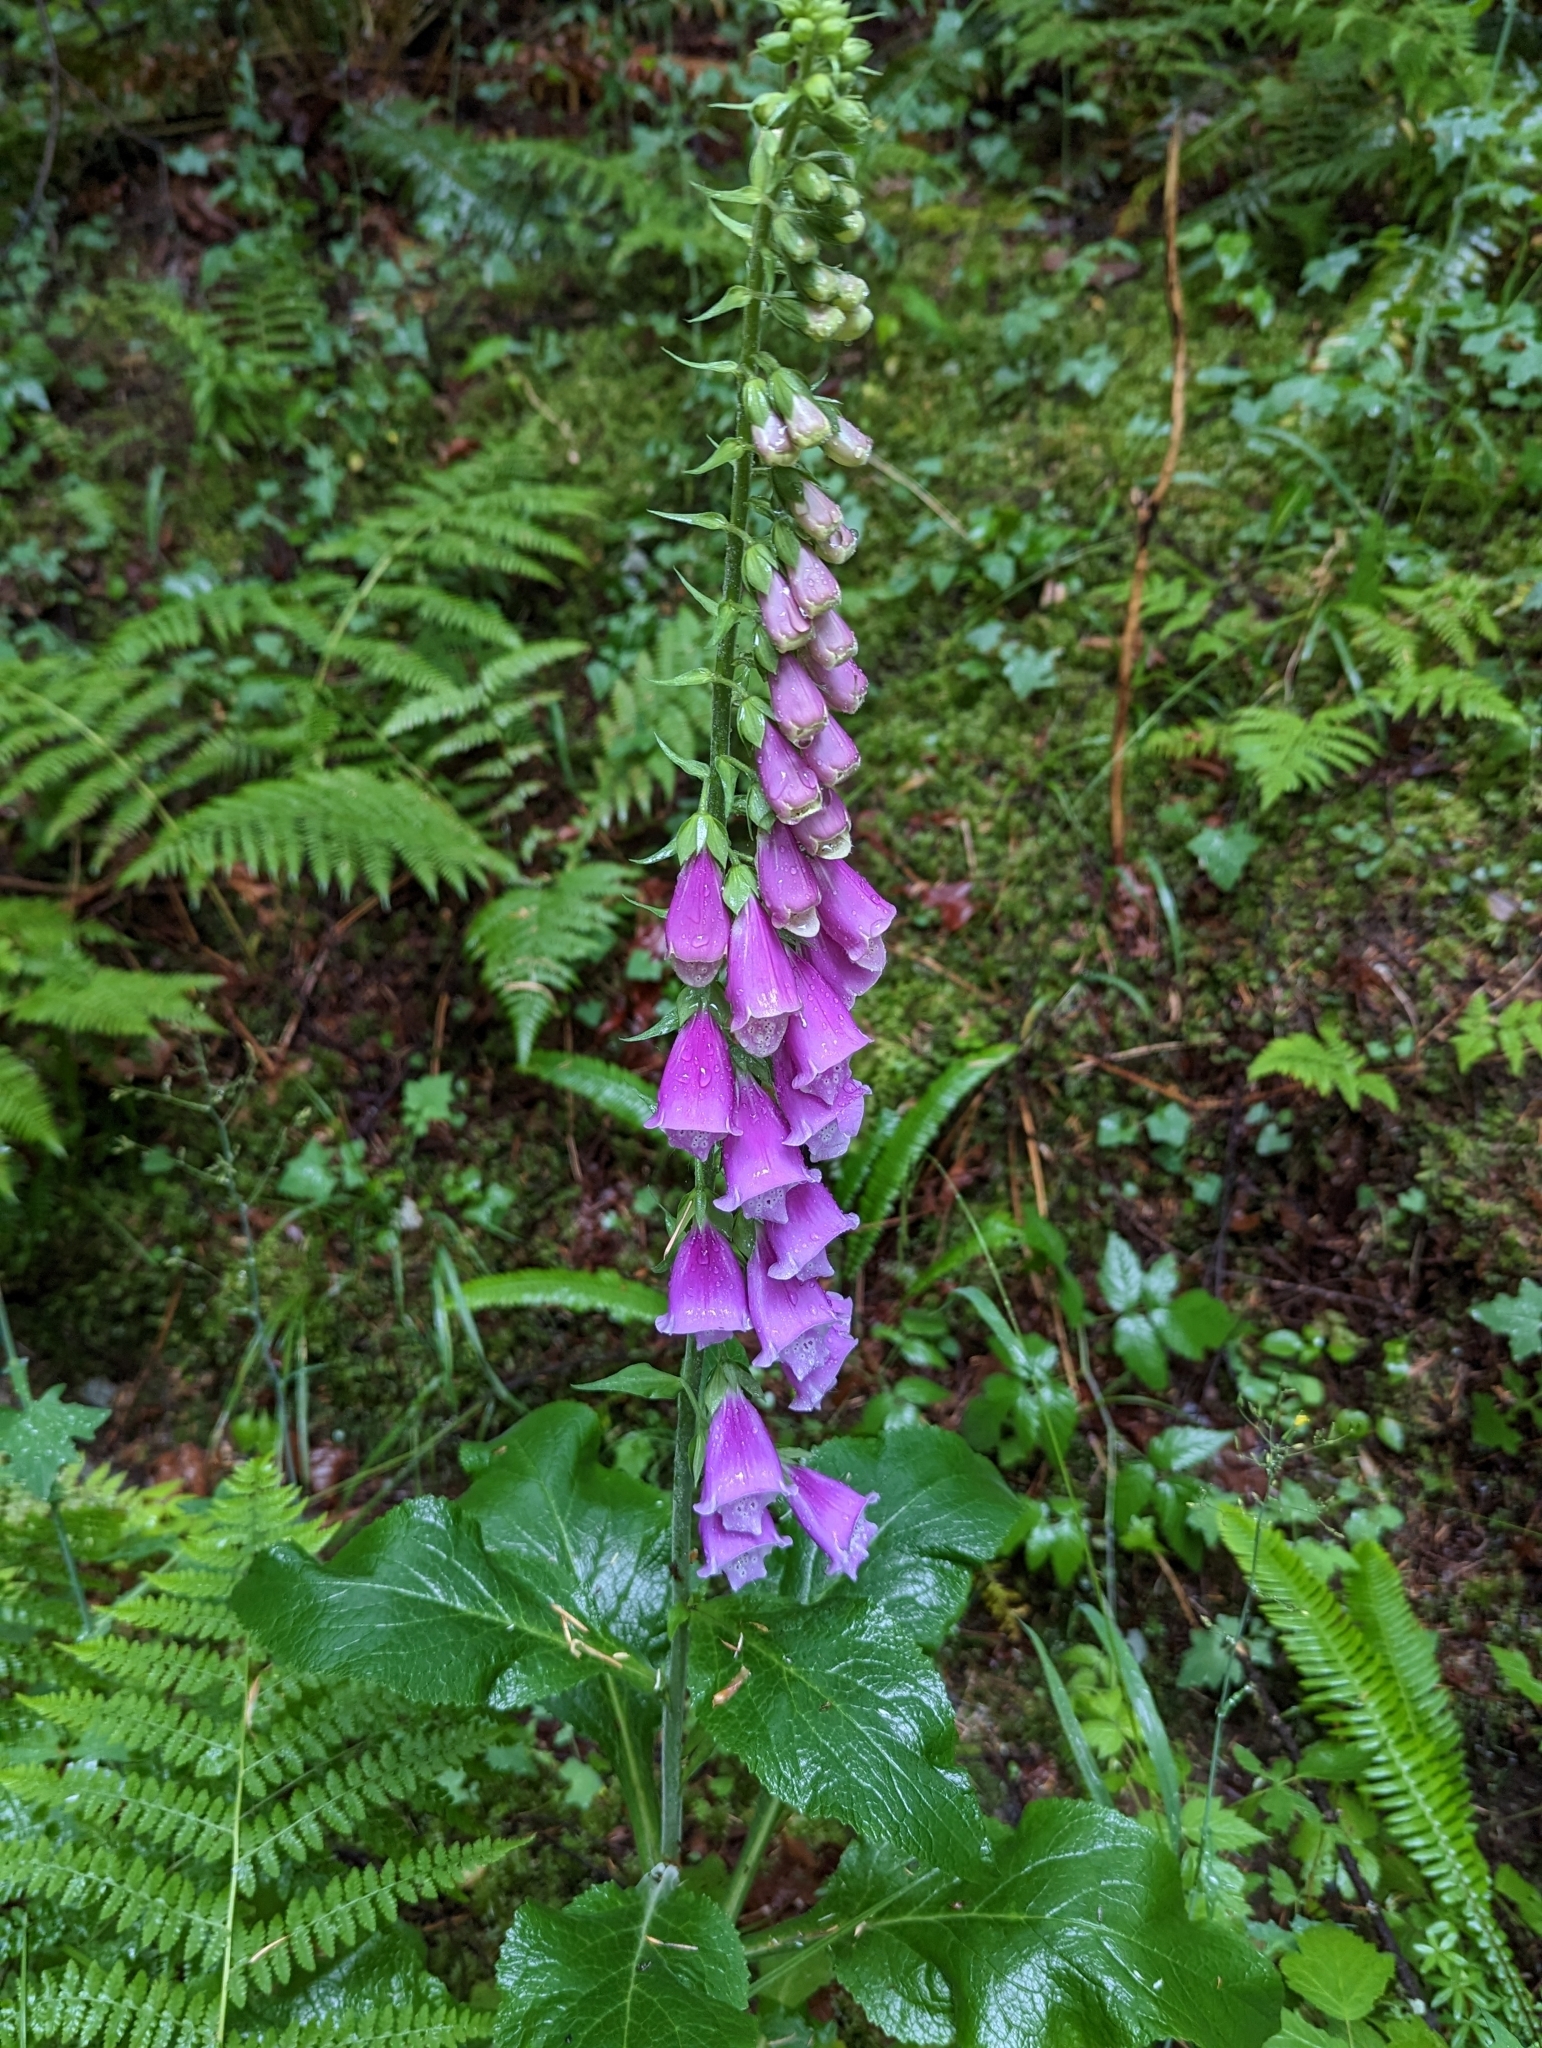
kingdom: Plantae
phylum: Tracheophyta
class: Magnoliopsida
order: Lamiales
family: Plantaginaceae
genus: Digitalis
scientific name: Digitalis purpurea
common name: Foxglove
